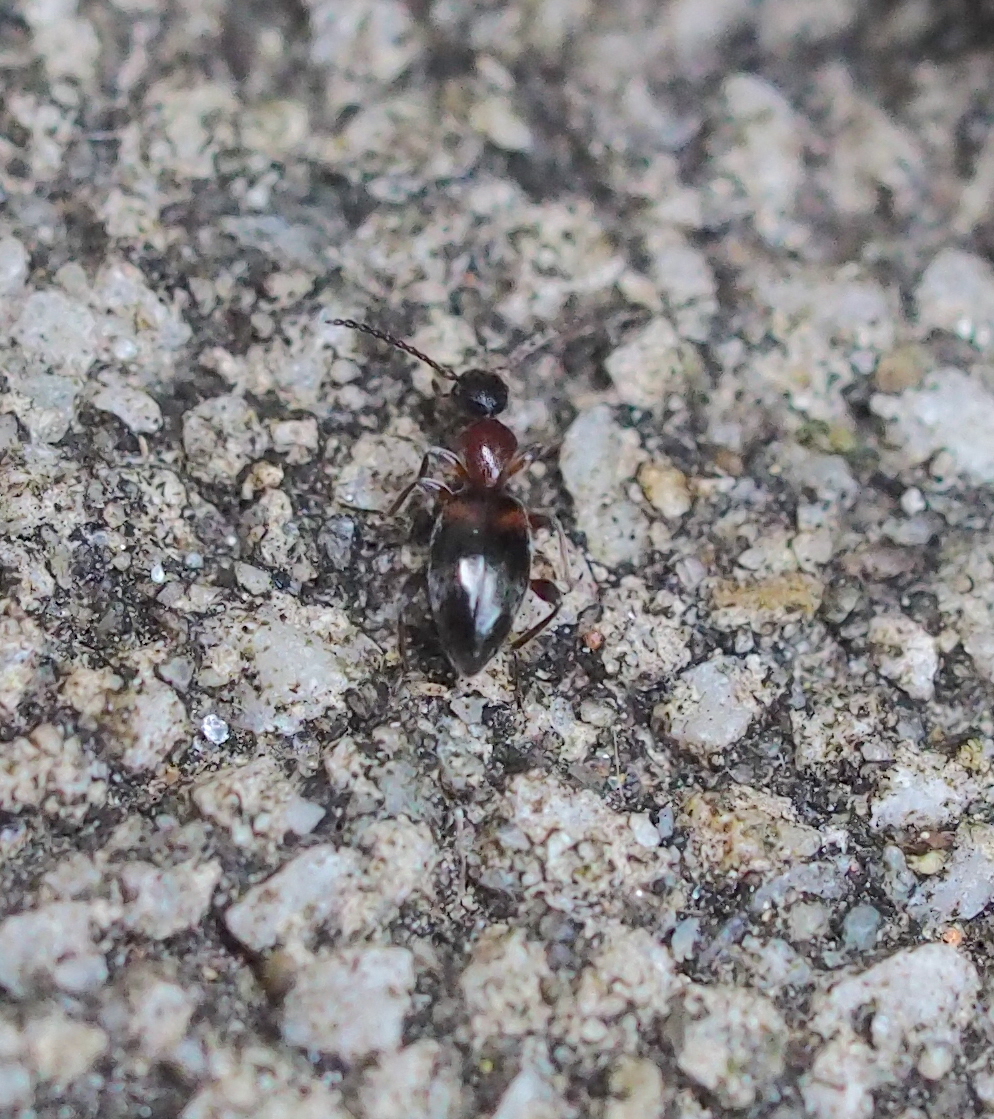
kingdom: Animalia
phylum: Arthropoda
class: Insecta
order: Coleoptera
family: Anthicidae
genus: Anthelephila
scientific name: Anthelephila pedestris
